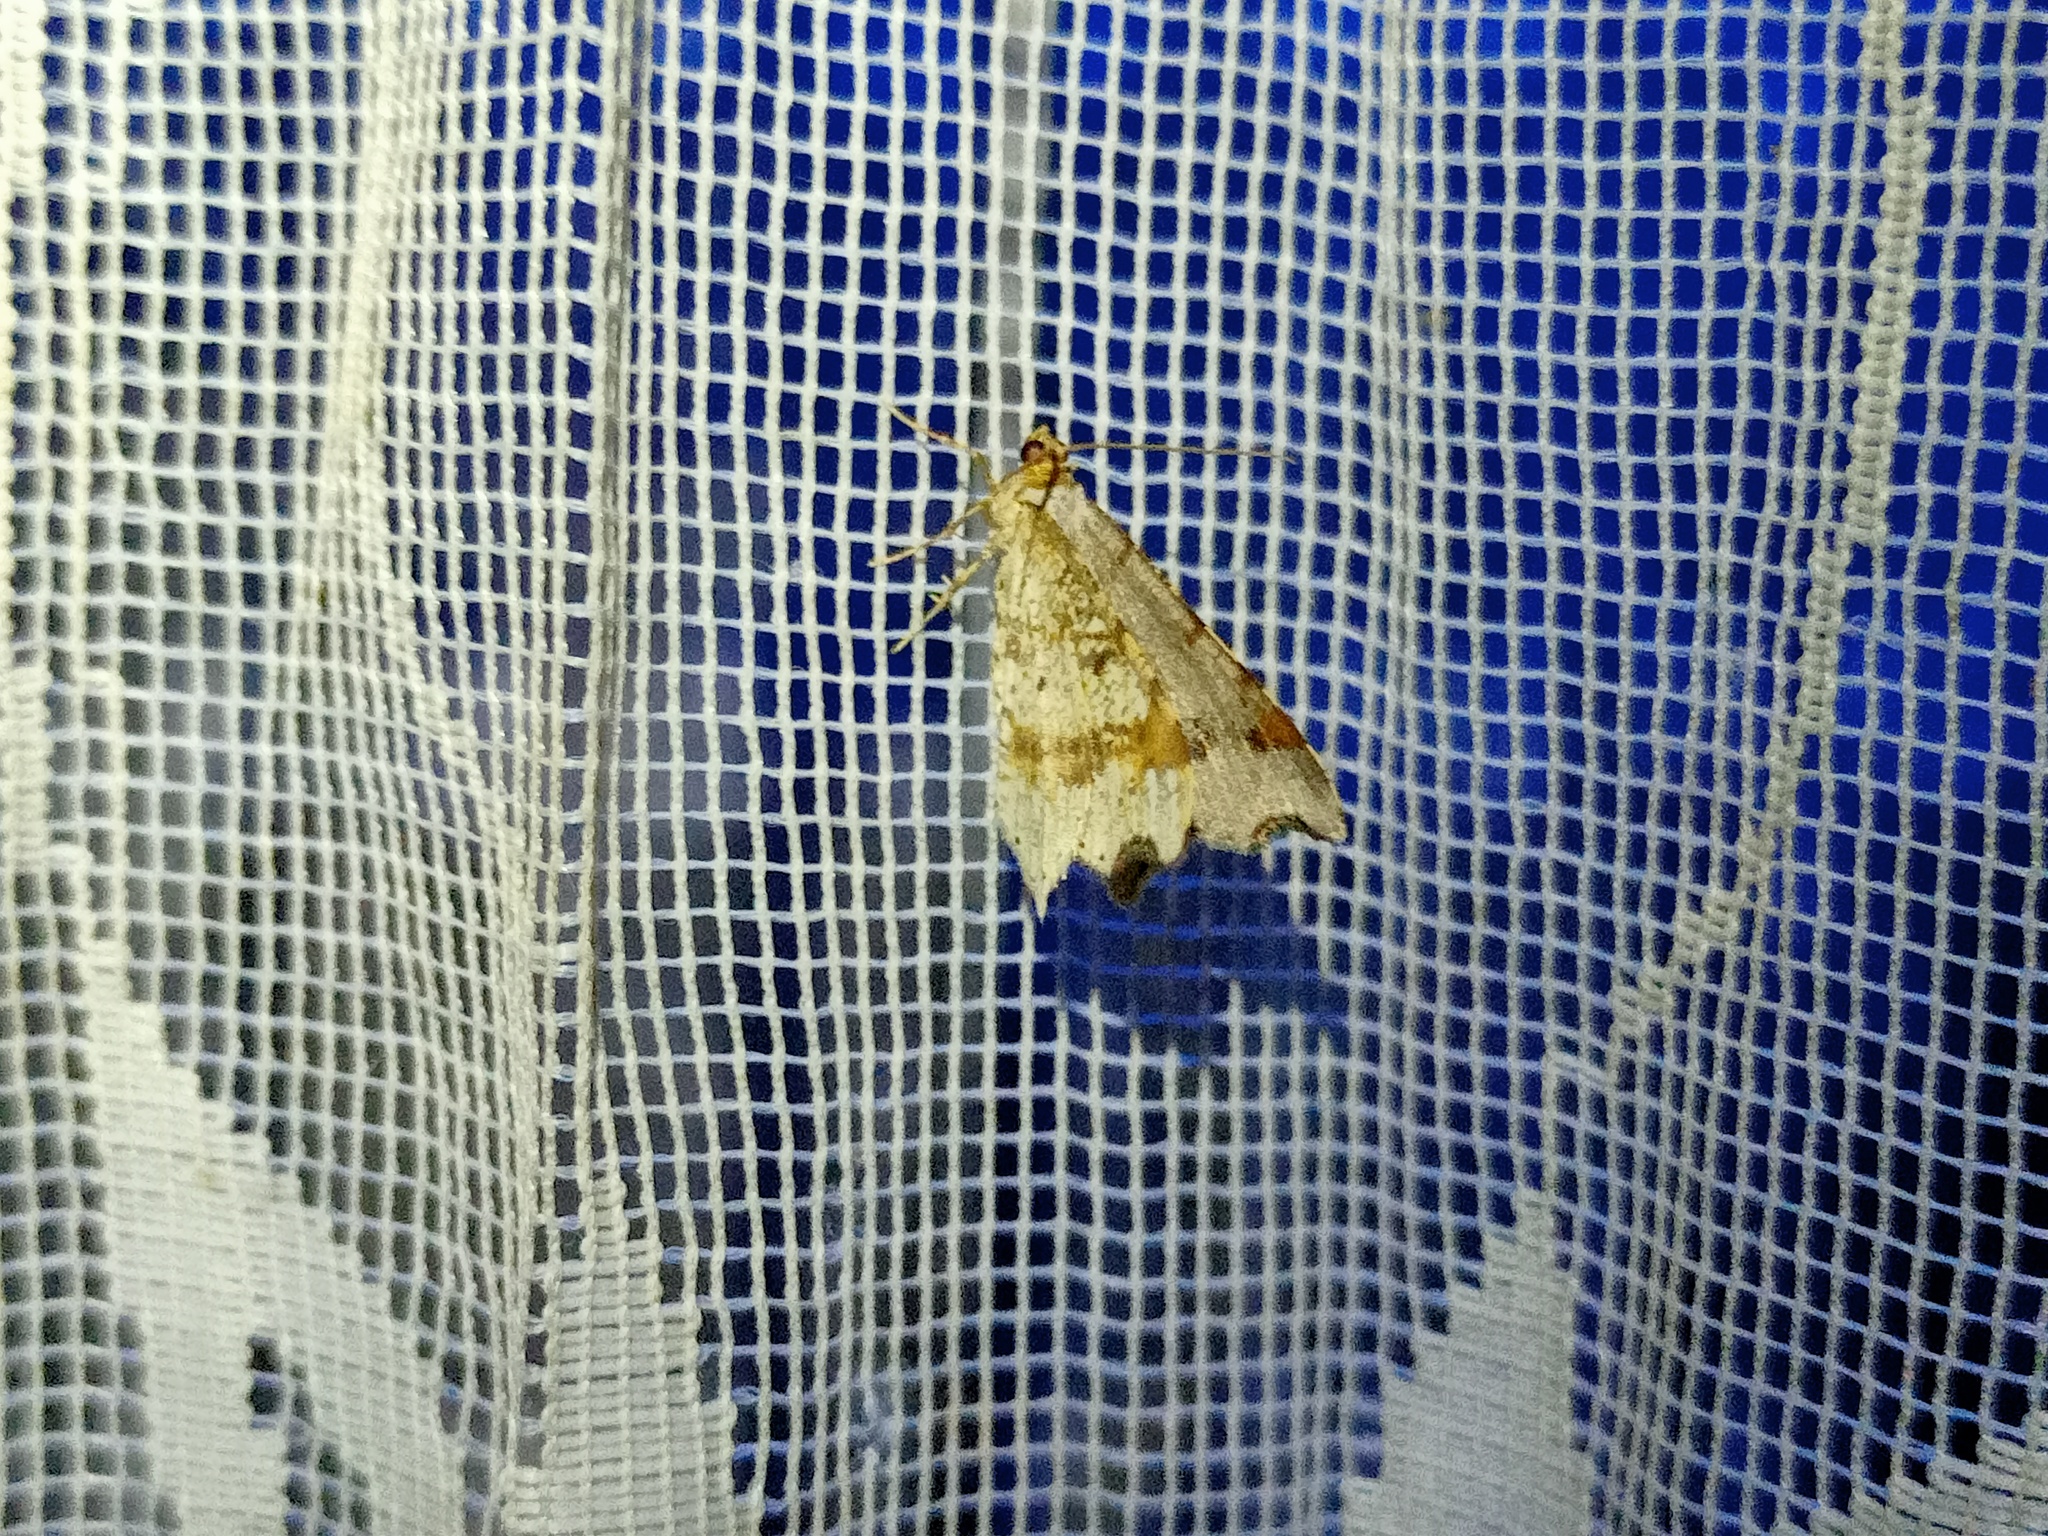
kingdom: Animalia
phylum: Arthropoda
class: Insecta
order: Lepidoptera
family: Geometridae
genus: Macaria
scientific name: Macaria alternata
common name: Sharp-angled peacock
